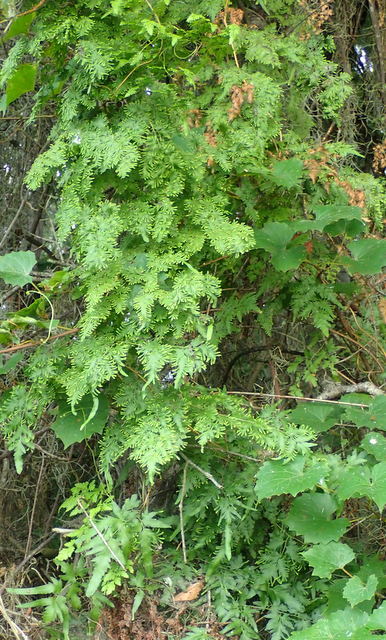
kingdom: Plantae
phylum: Tracheophyta
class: Polypodiopsida
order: Schizaeales
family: Lygodiaceae
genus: Lygodium
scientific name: Lygodium japonicum
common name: Japanese climbing fern
